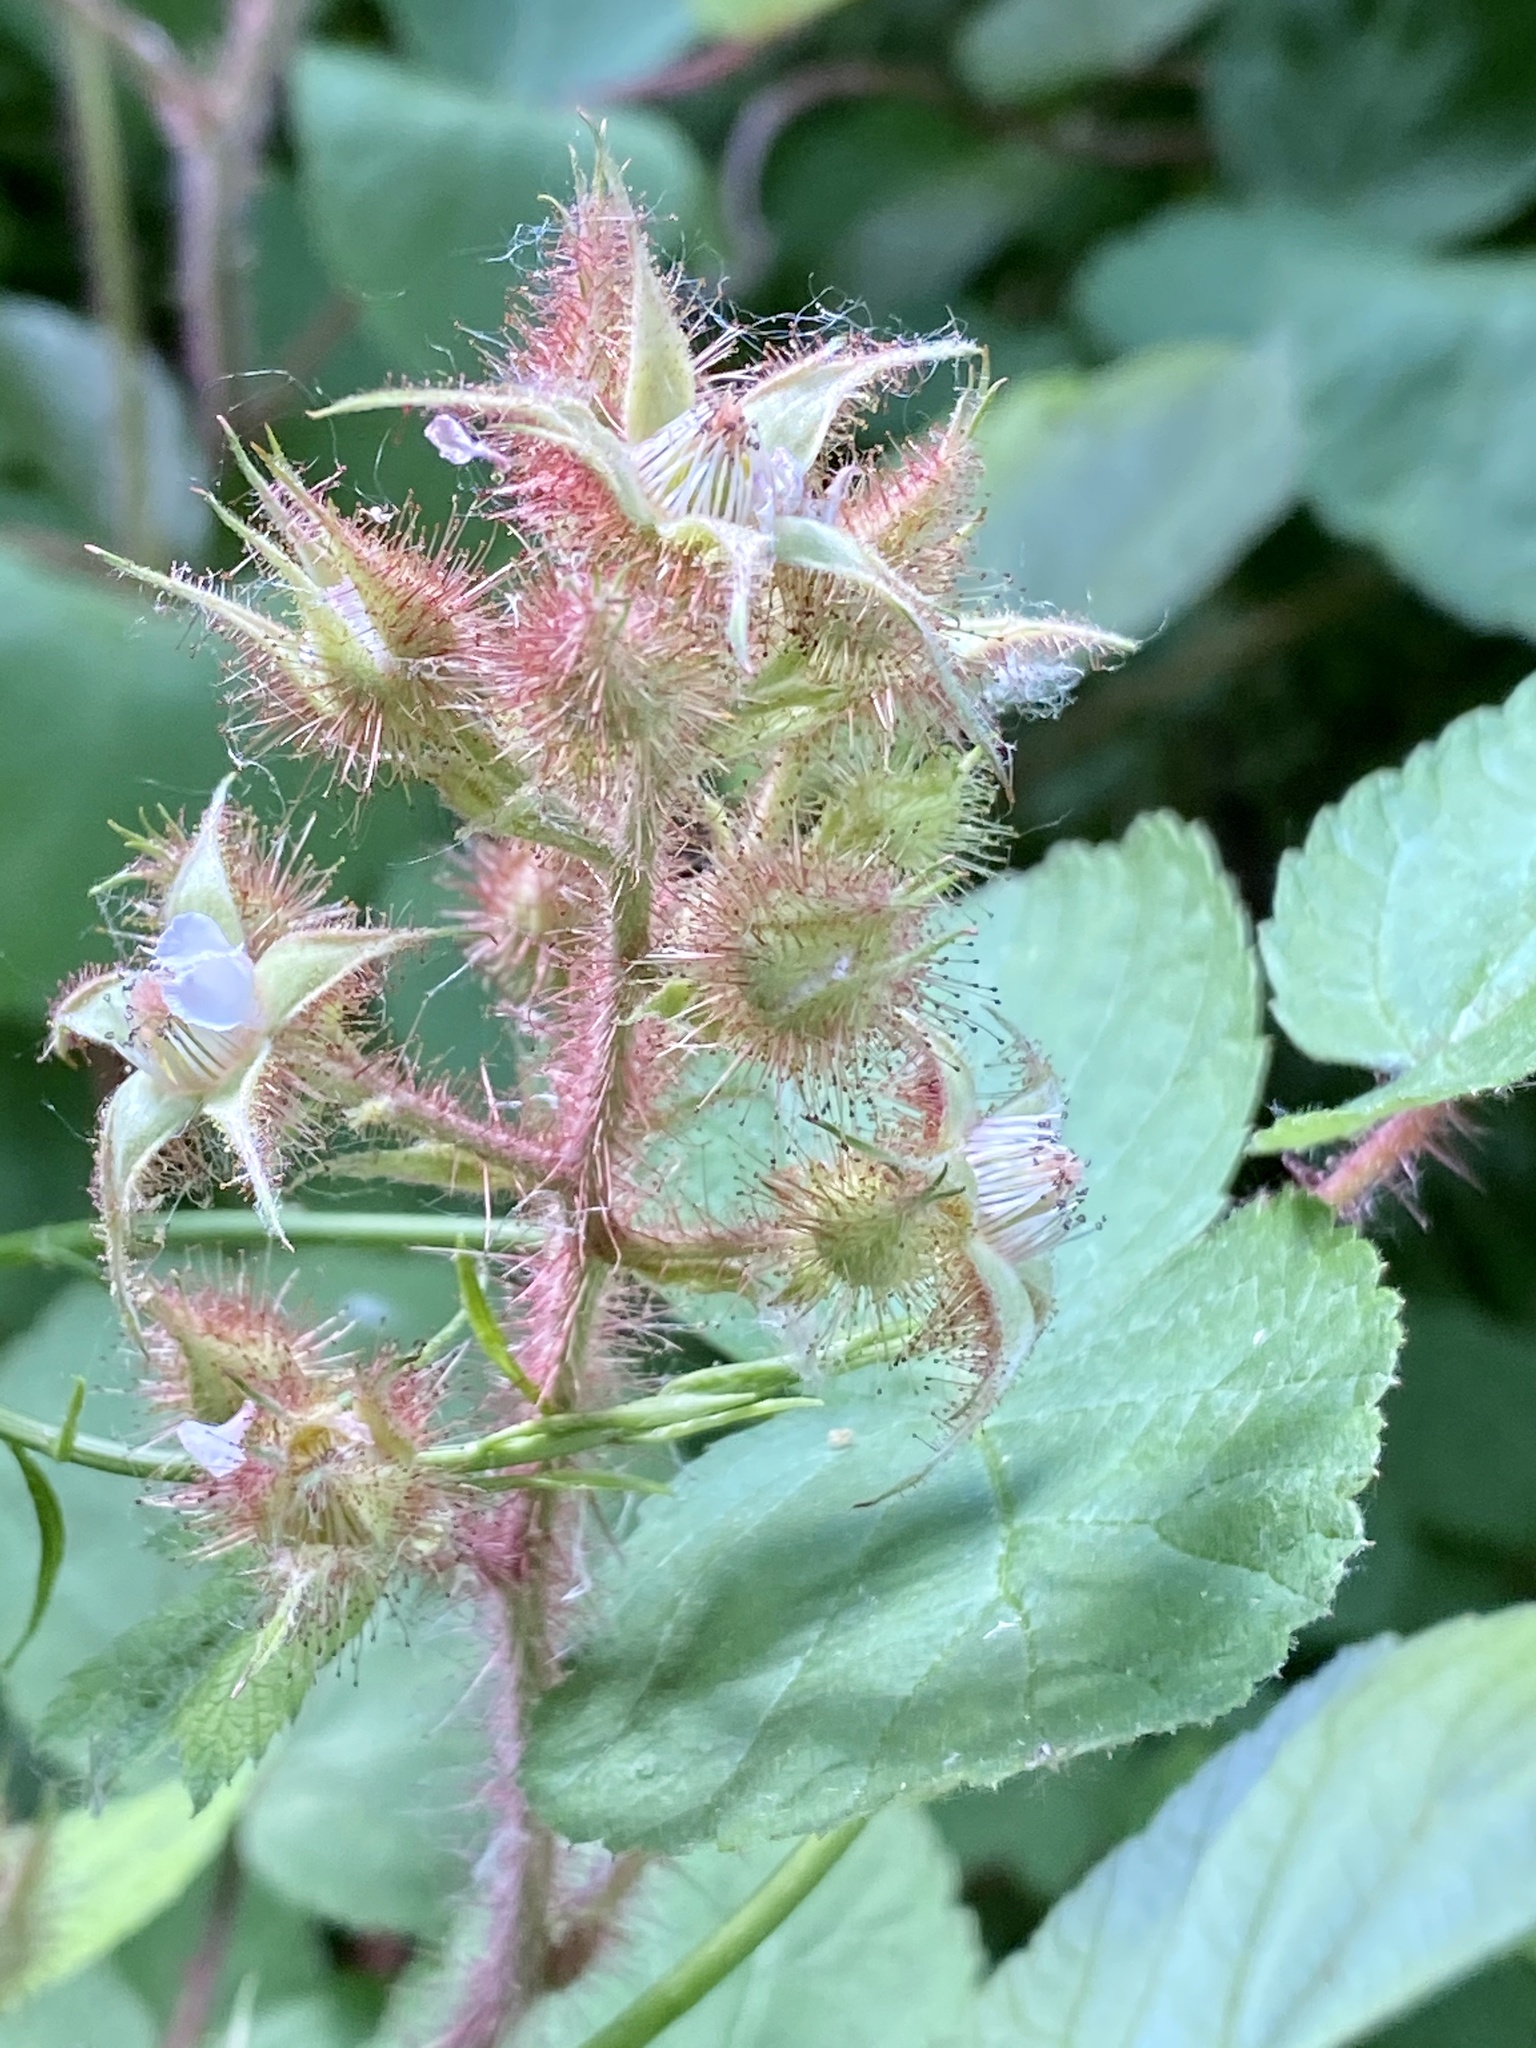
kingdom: Plantae
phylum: Tracheophyta
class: Magnoliopsida
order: Rosales
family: Rosaceae
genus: Rubus
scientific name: Rubus phoenicolasius
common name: Japanese wineberry
